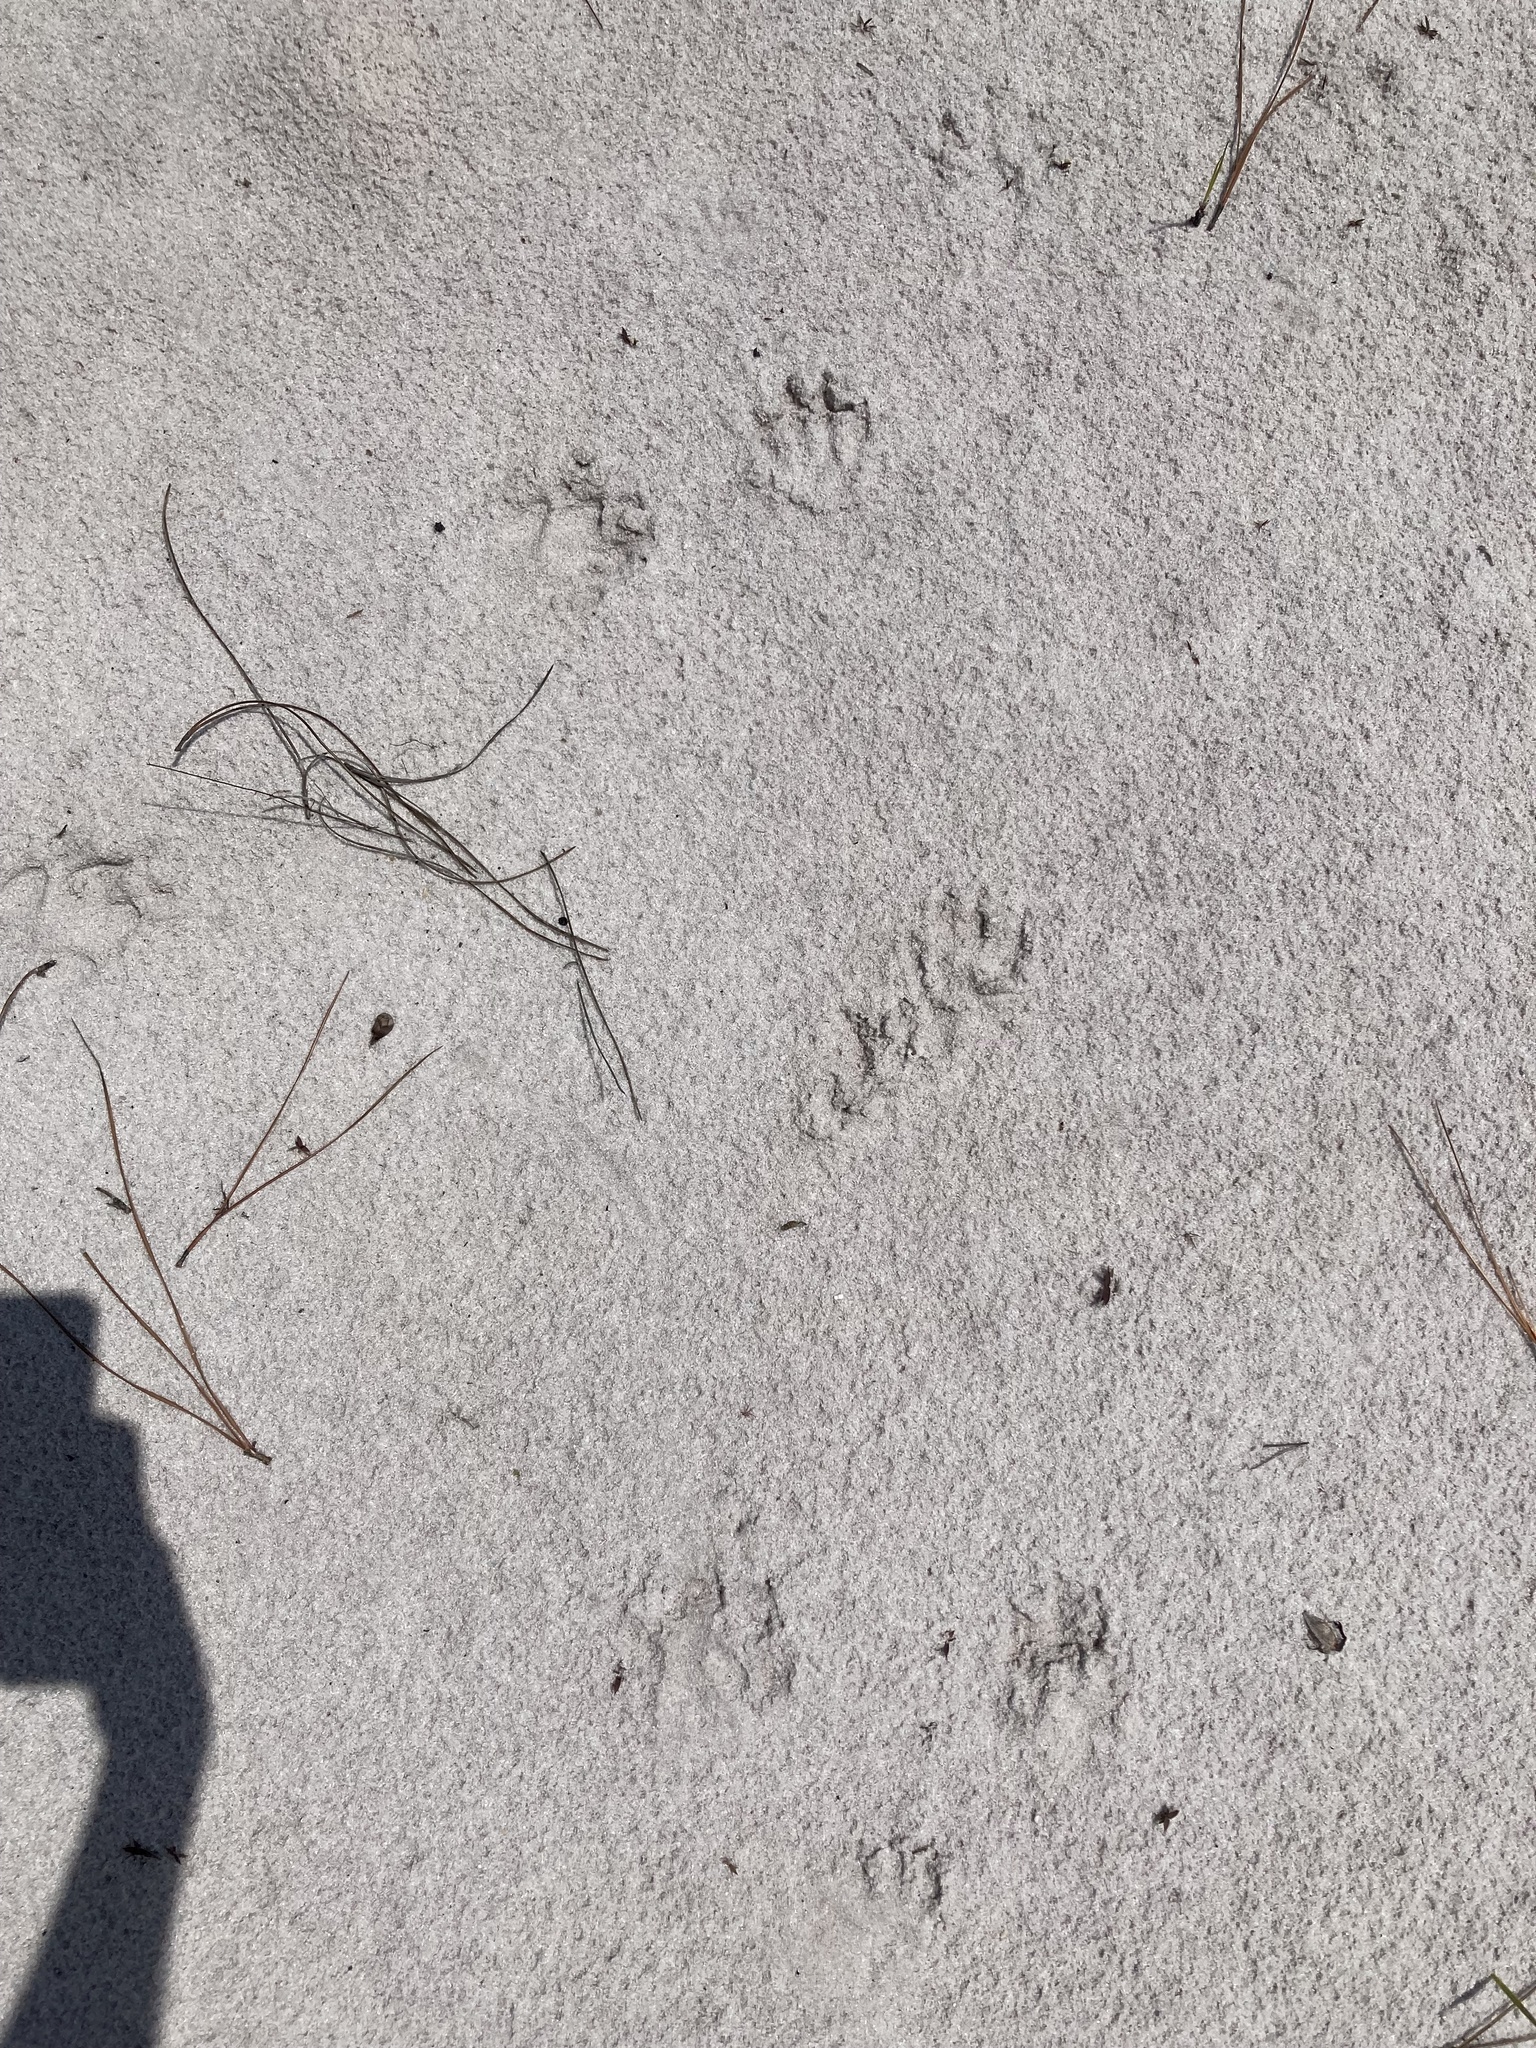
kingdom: Animalia
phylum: Chordata
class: Mammalia
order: Carnivora
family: Procyonidae
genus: Procyon
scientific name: Procyon lotor
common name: Raccoon
